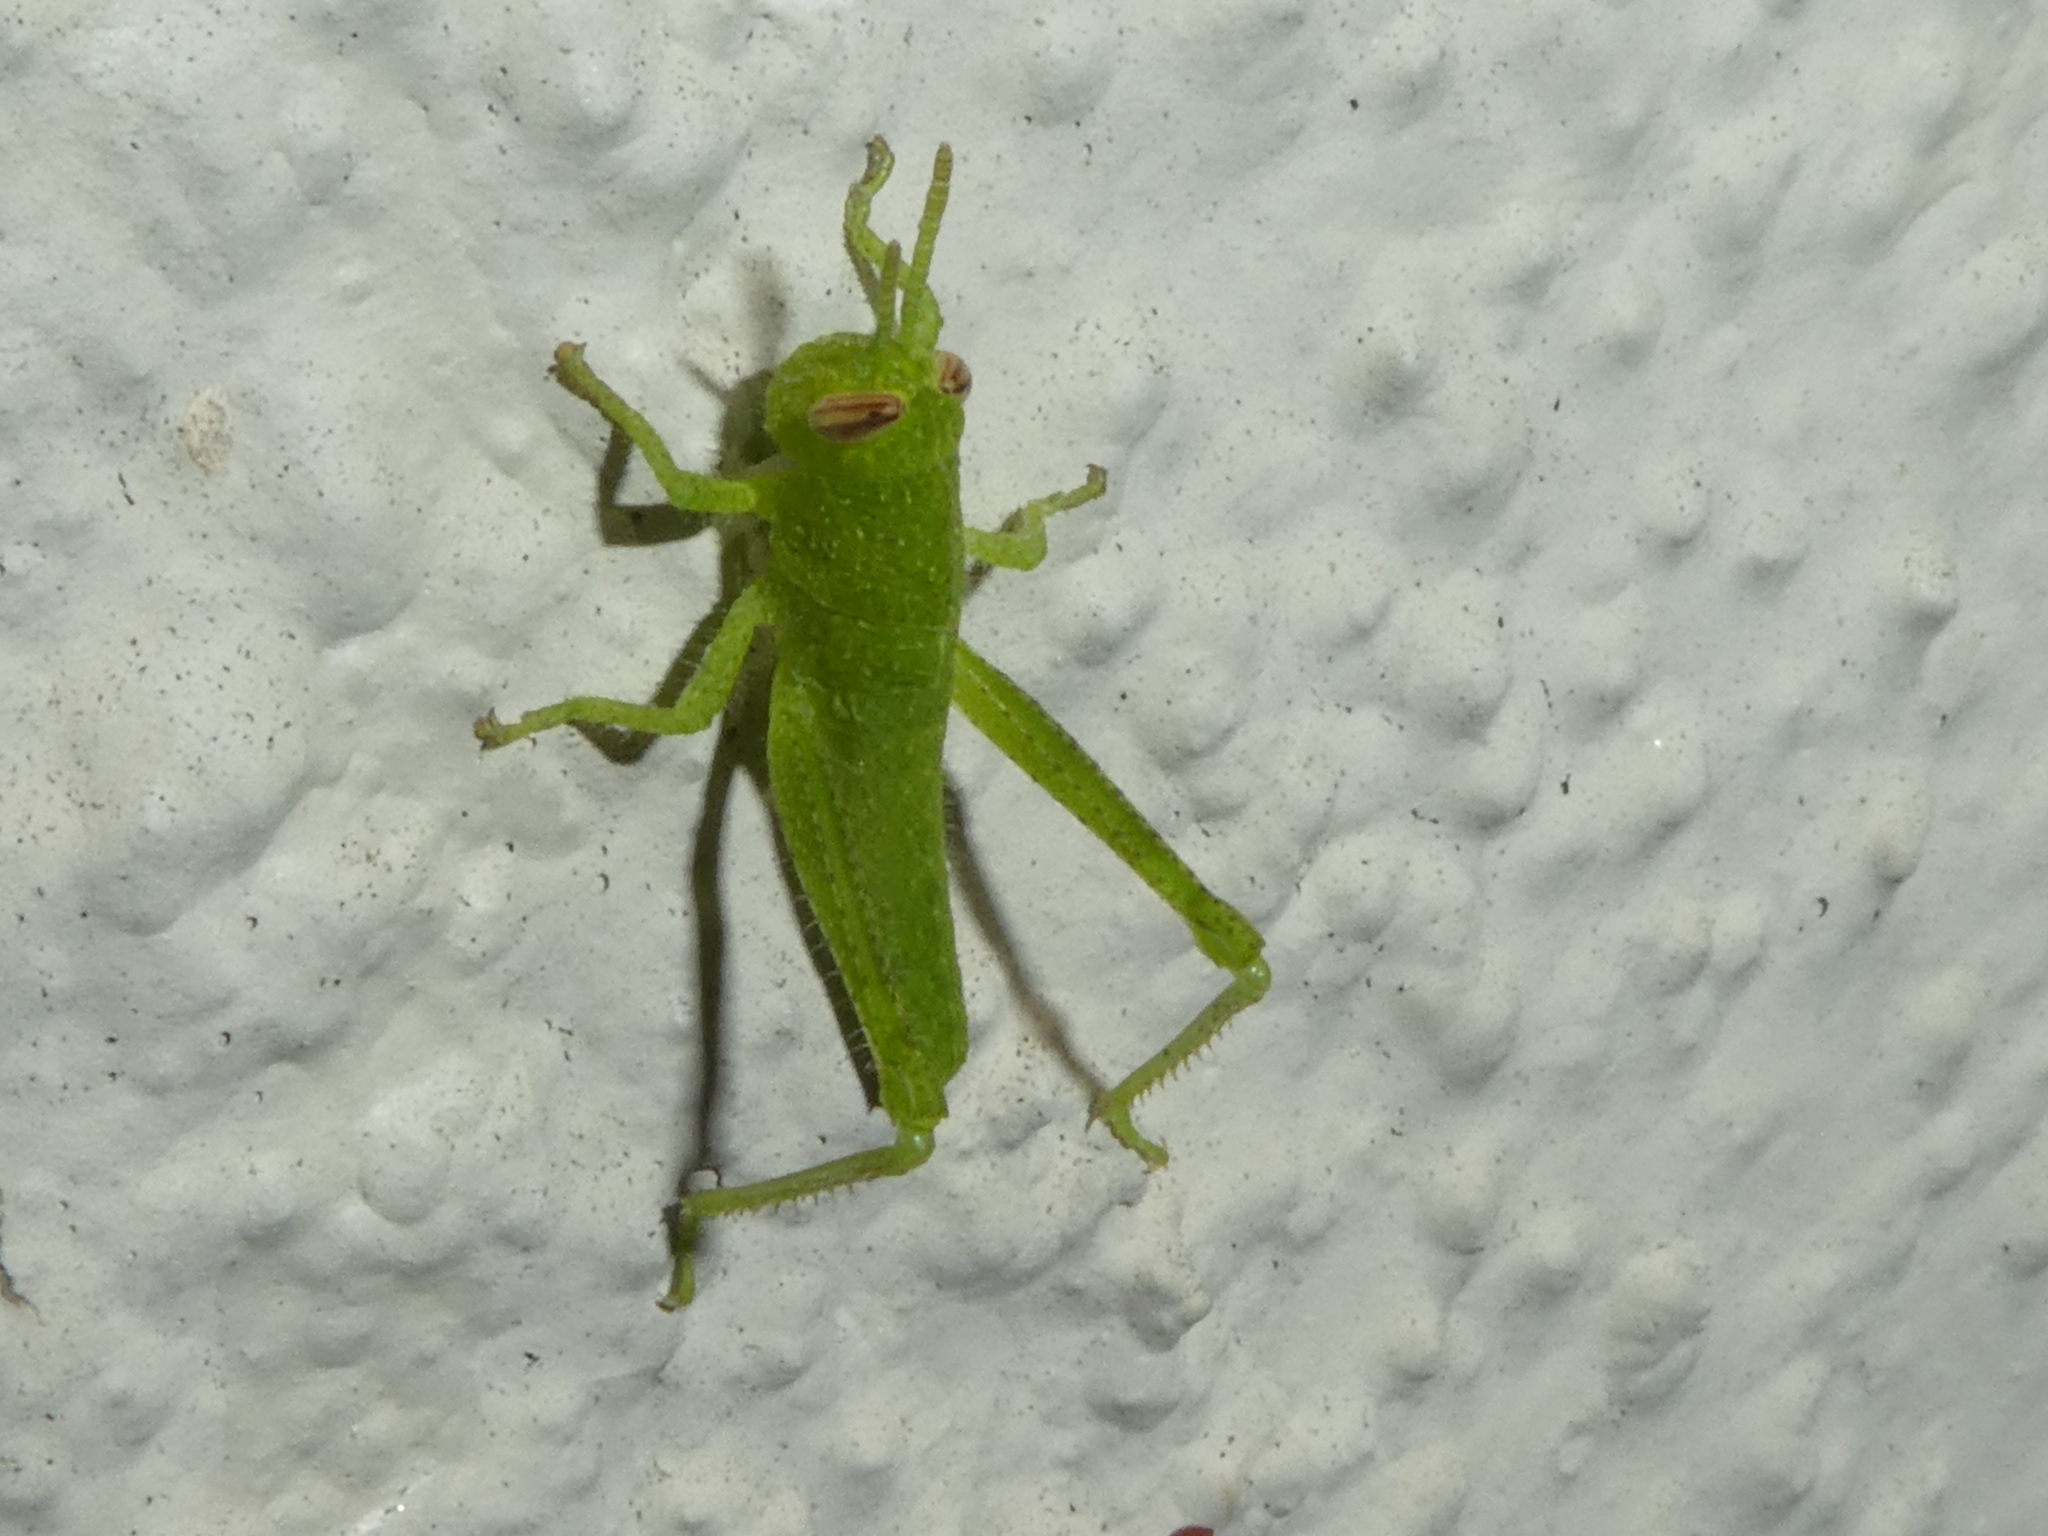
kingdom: Animalia
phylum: Arthropoda
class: Insecta
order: Orthoptera
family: Acrididae
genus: Schistocerca
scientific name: Schistocerca nitens
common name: Vagrant grasshopper
